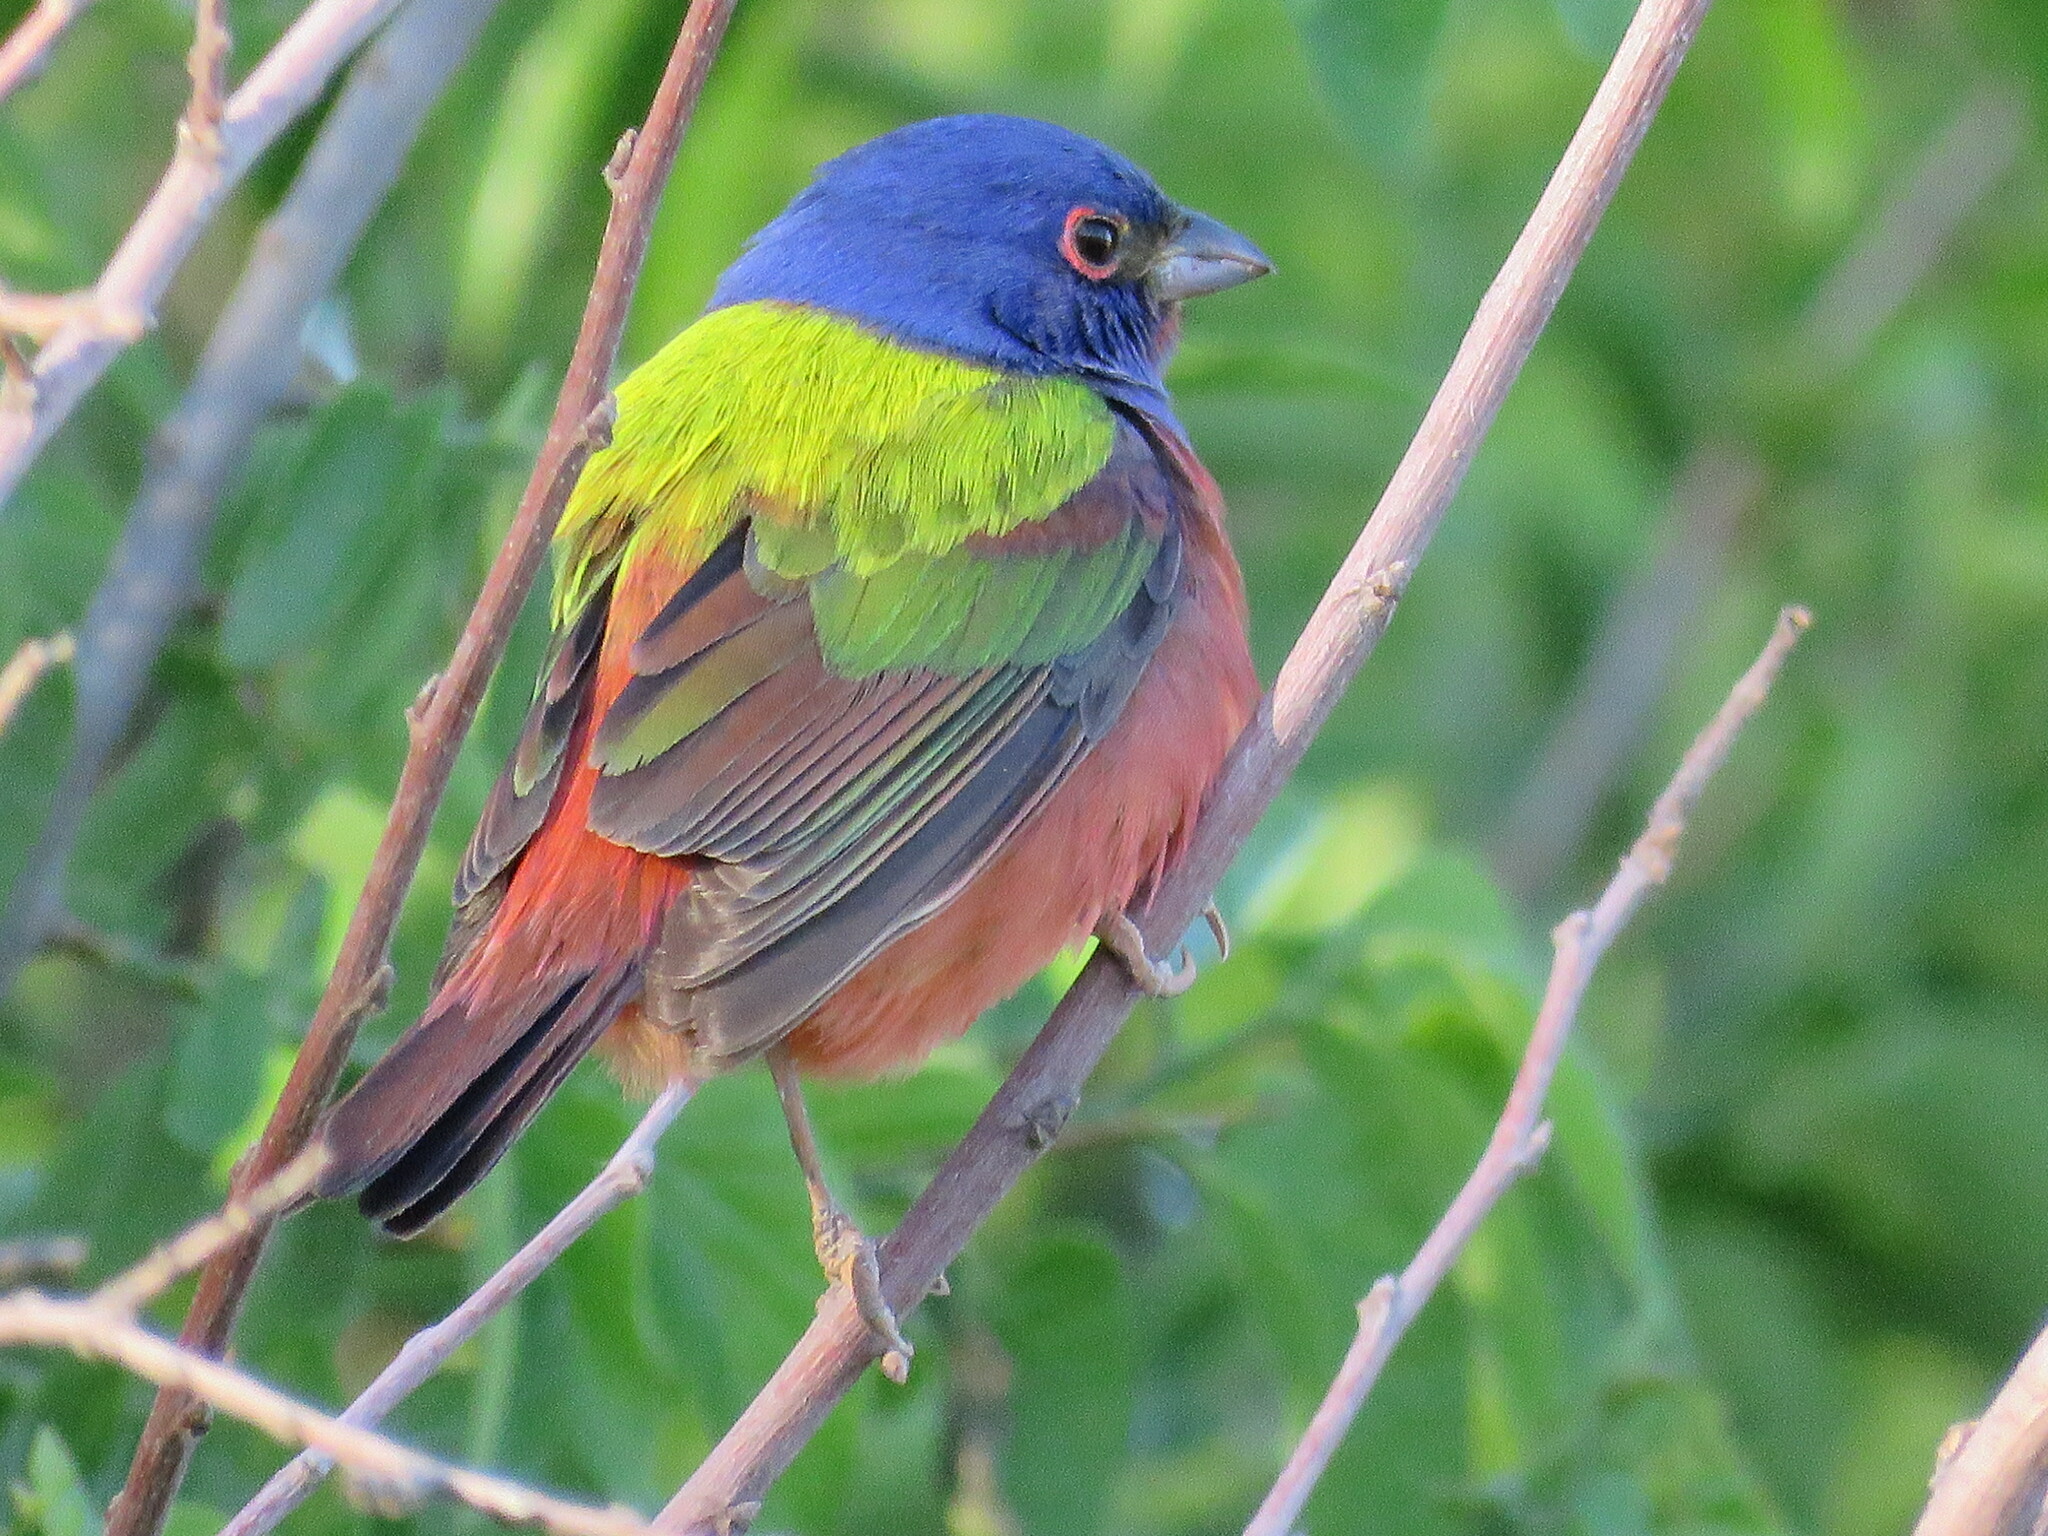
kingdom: Animalia
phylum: Chordata
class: Aves
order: Passeriformes
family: Cardinalidae
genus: Passerina
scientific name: Passerina ciris
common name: Painted bunting
